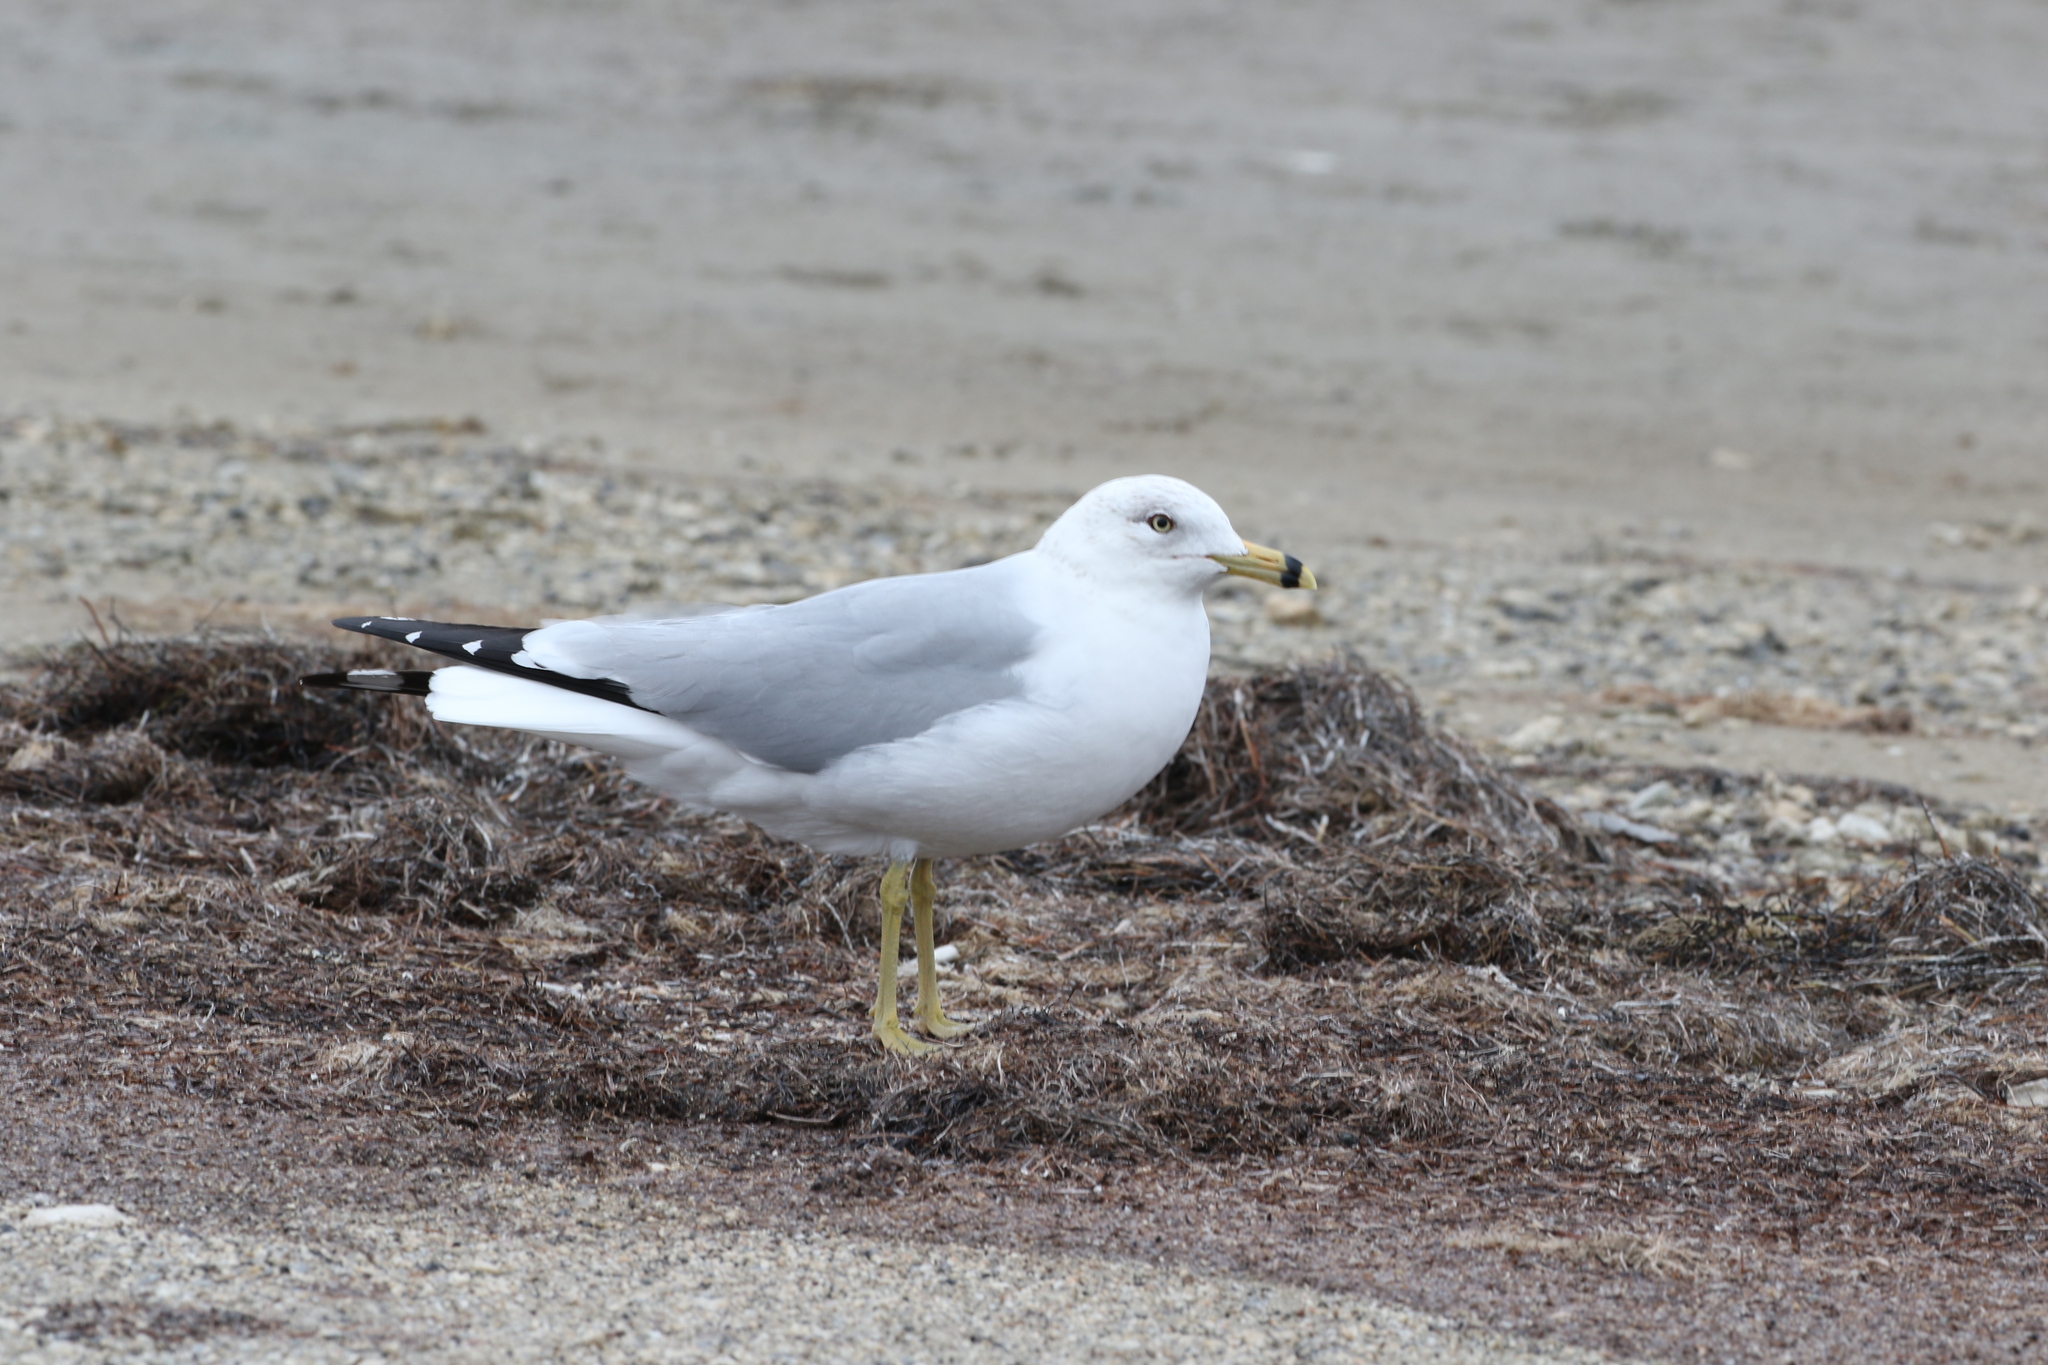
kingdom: Animalia
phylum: Chordata
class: Aves
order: Charadriiformes
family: Laridae
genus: Larus
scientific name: Larus delawarensis
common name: Ring-billed gull
